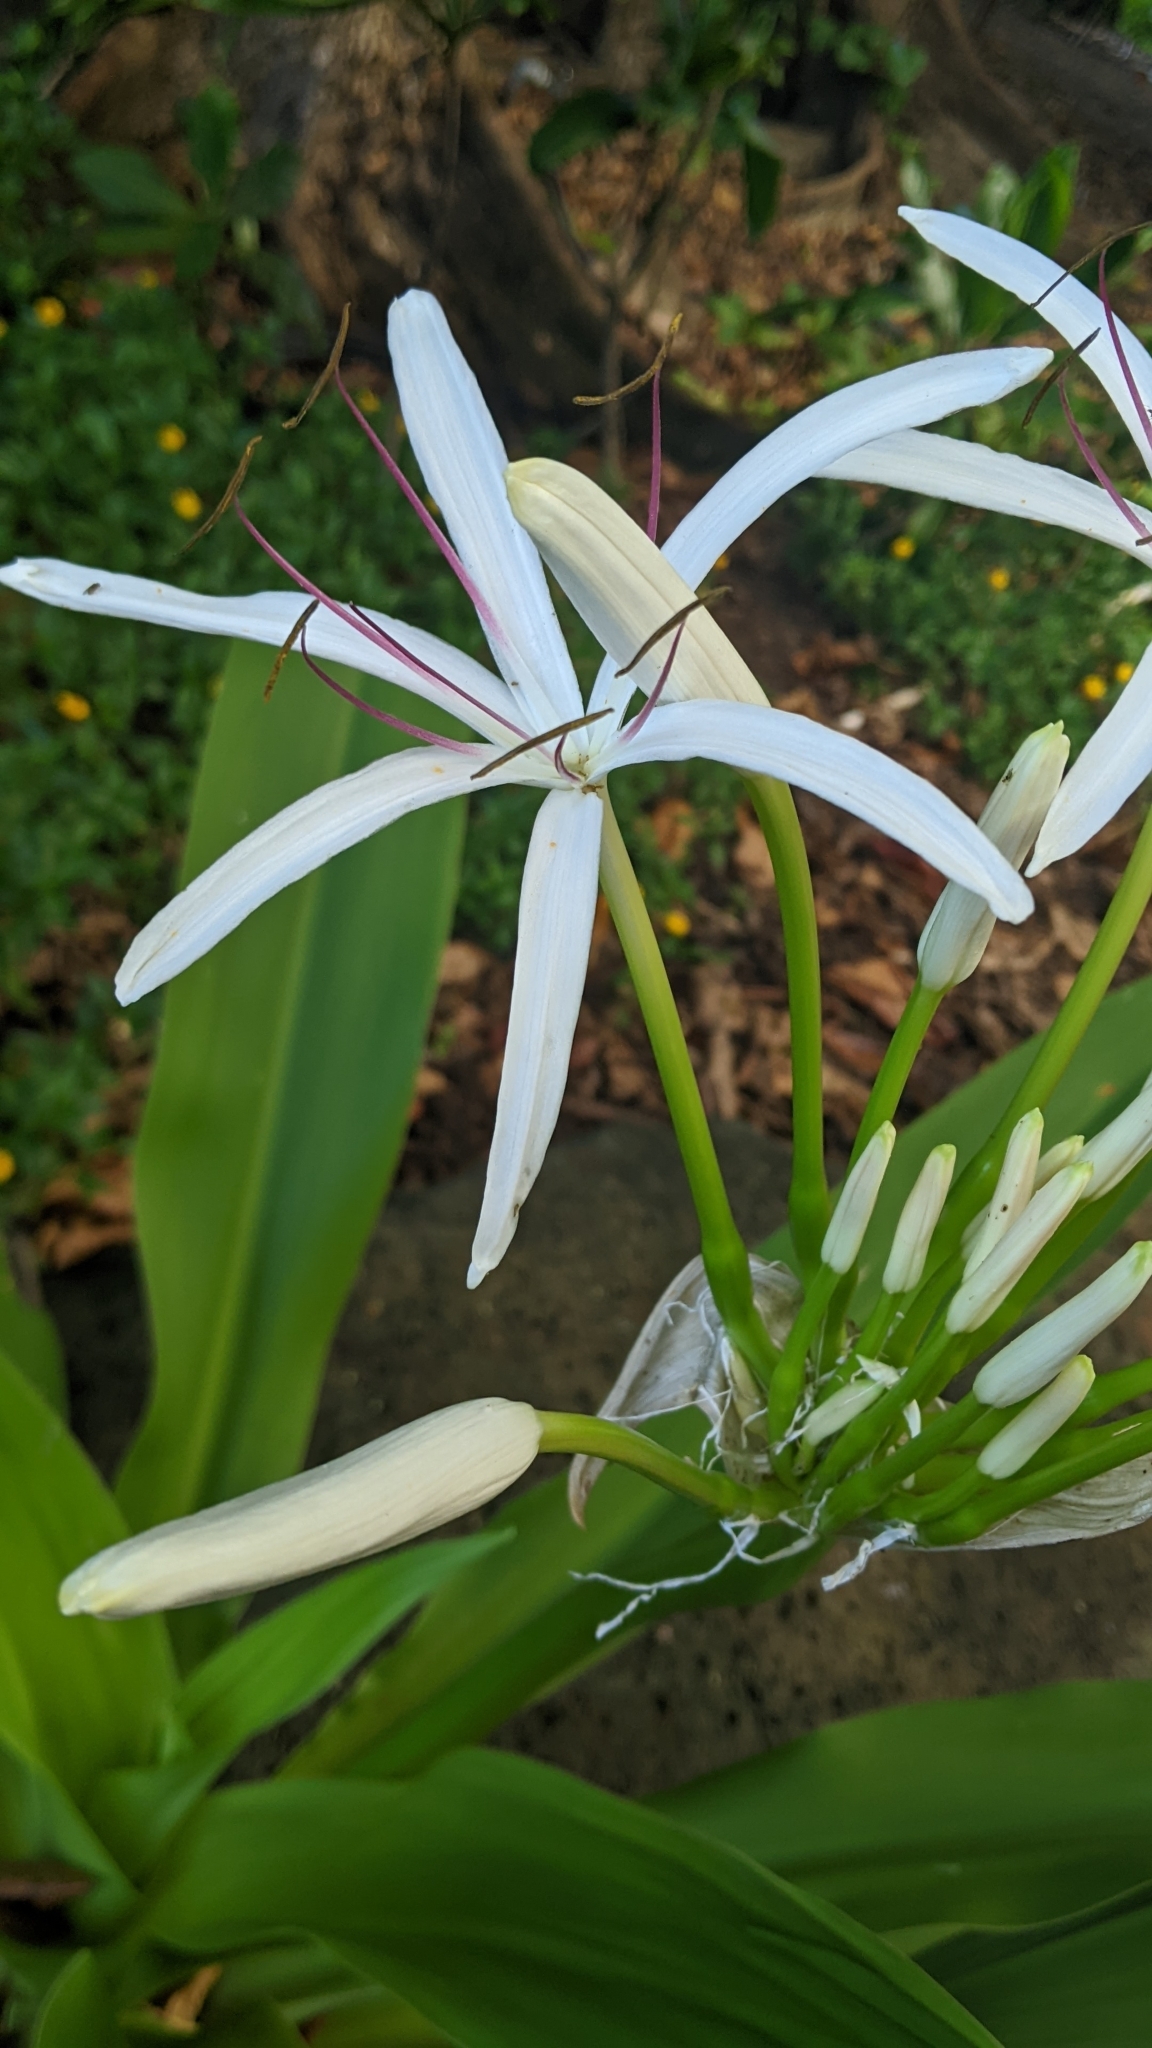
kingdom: Plantae
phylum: Tracheophyta
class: Liliopsida
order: Asparagales
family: Amaryllidaceae
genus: Crinum
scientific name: Crinum asiaticum
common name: Poisonbulb
